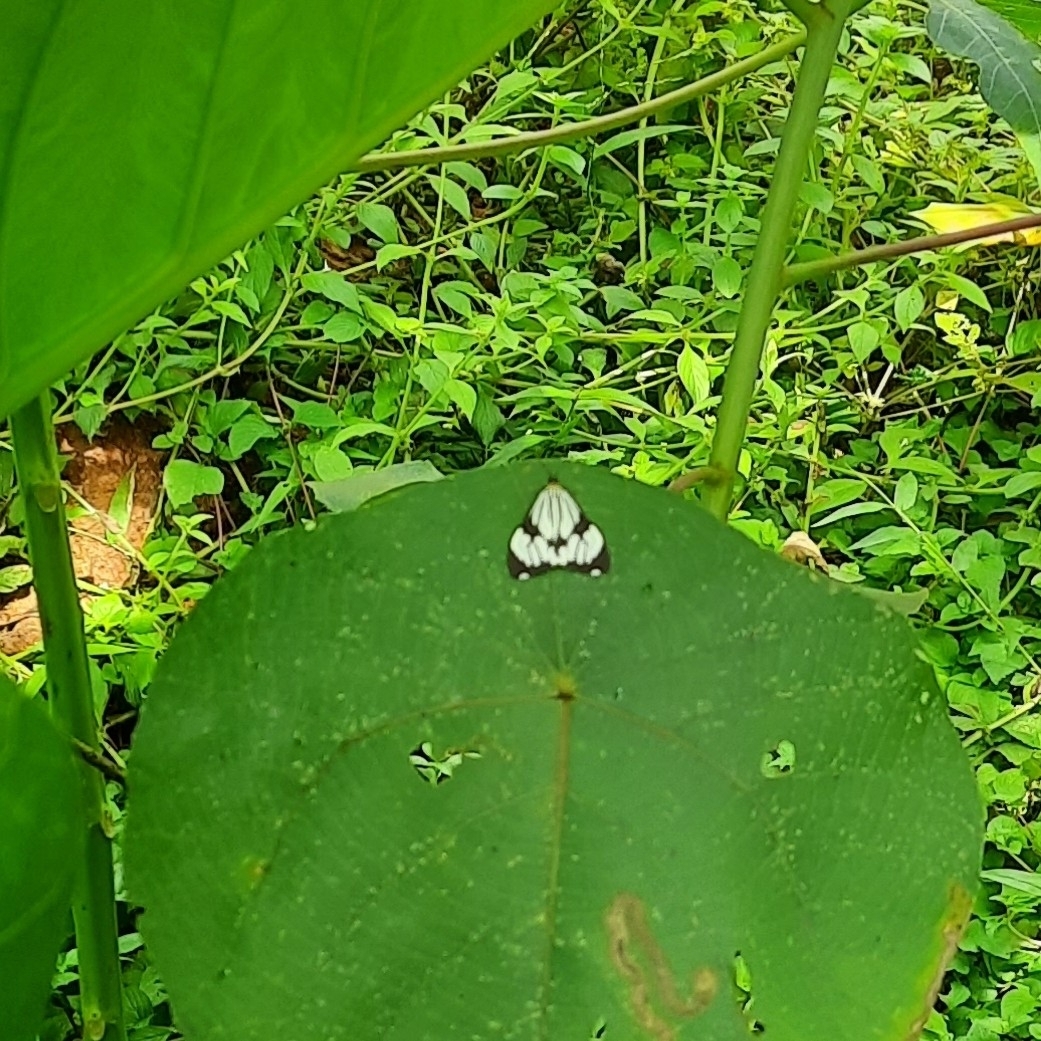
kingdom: Animalia
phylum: Arthropoda
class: Insecta
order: Lepidoptera
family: Erebidae
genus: Nyctemera
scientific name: Nyctemera coleta
